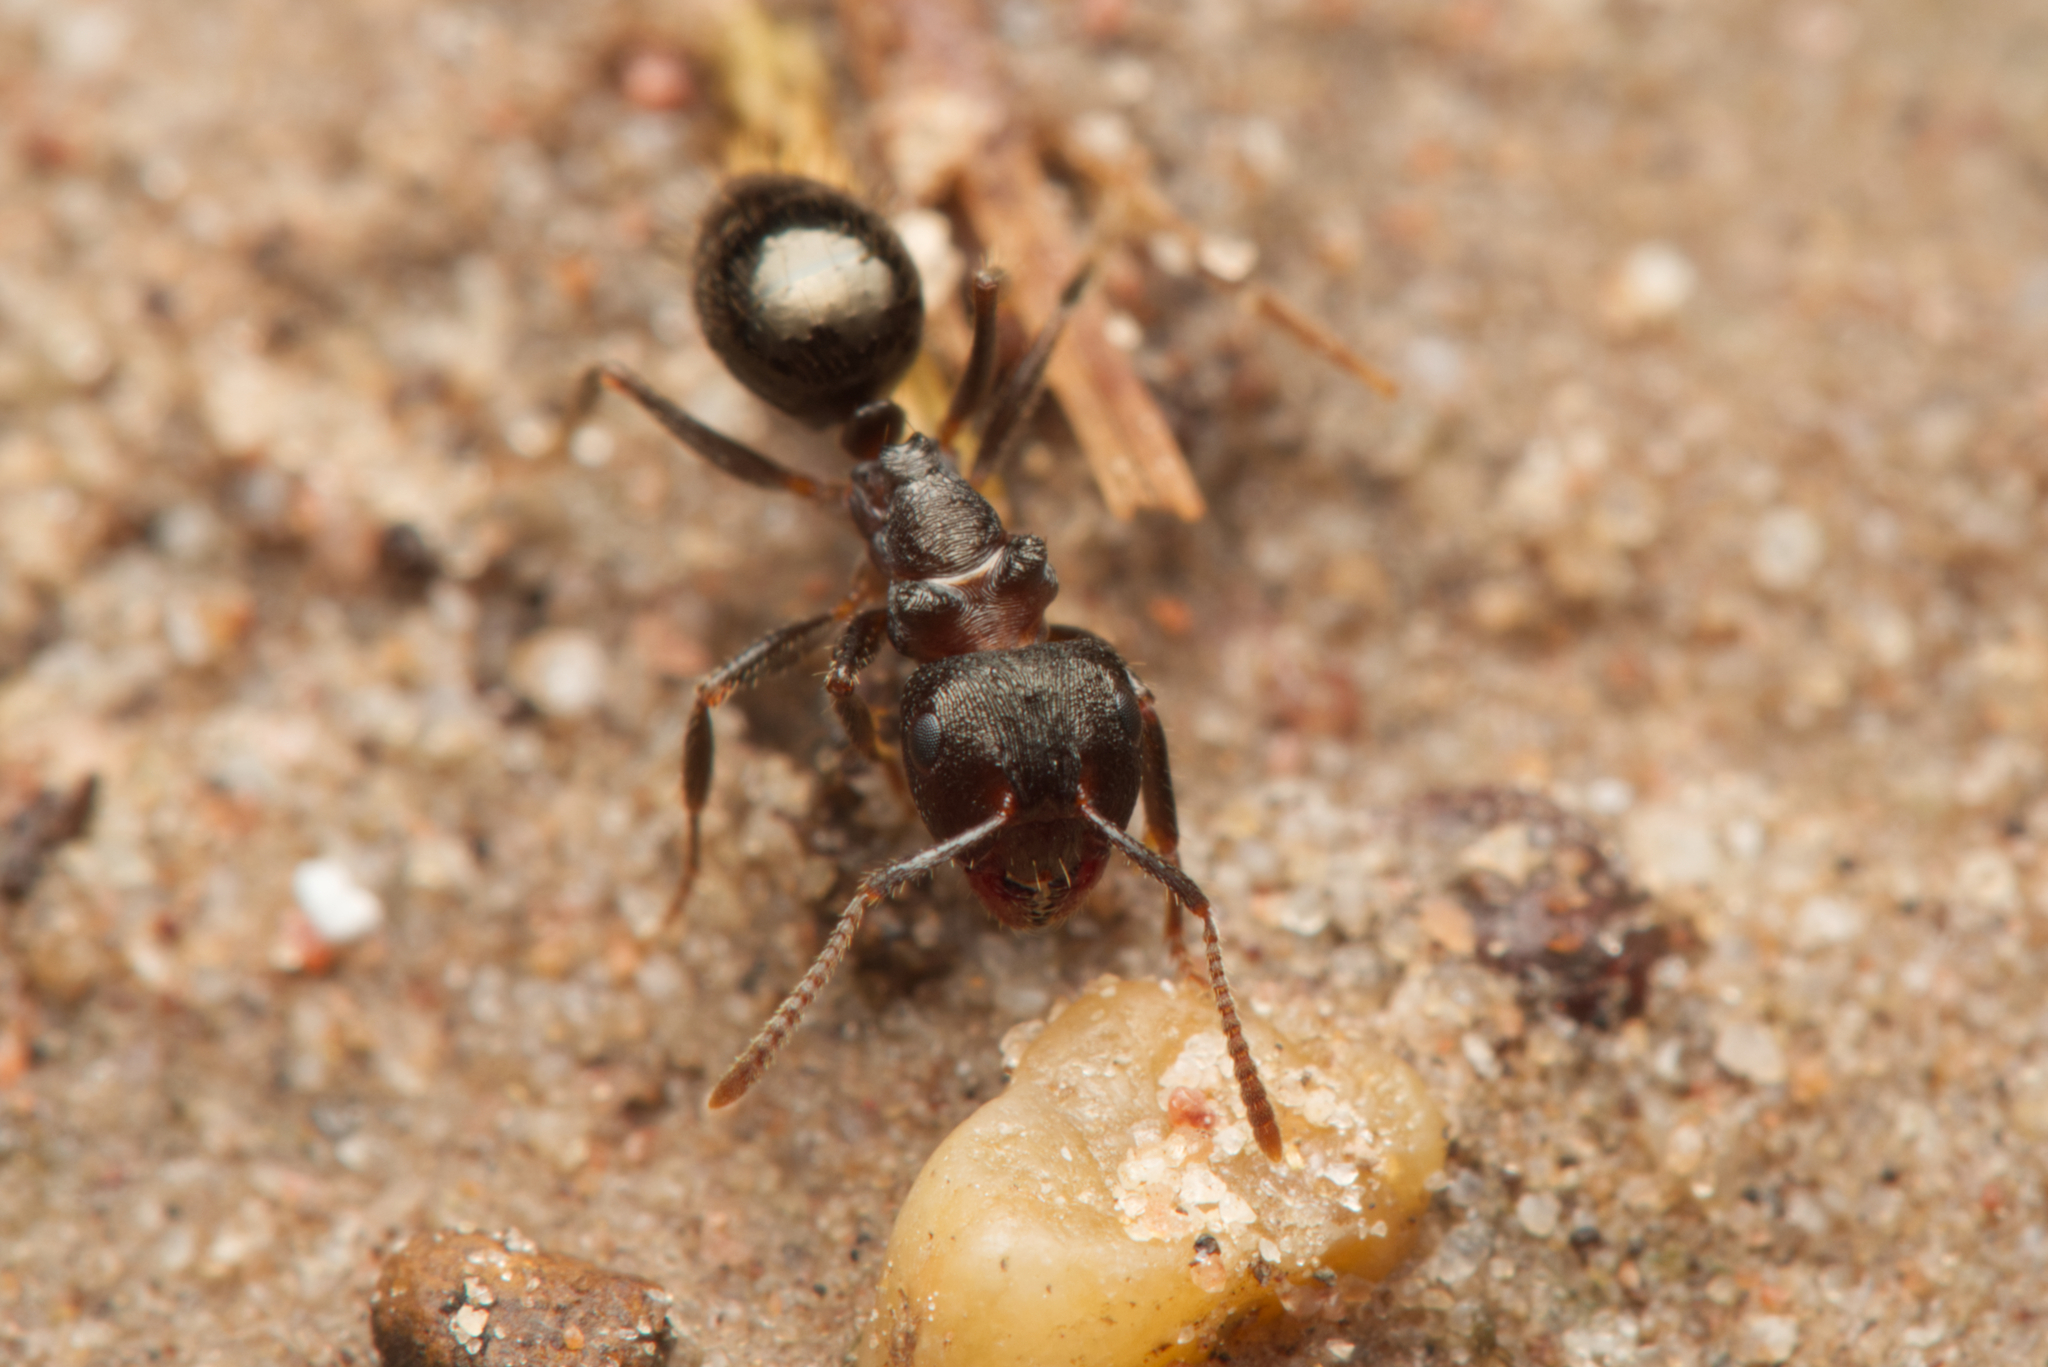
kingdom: Animalia
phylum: Arthropoda
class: Insecta
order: Hymenoptera
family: Formicidae
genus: Notoncus
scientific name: Notoncus ectatommoides
